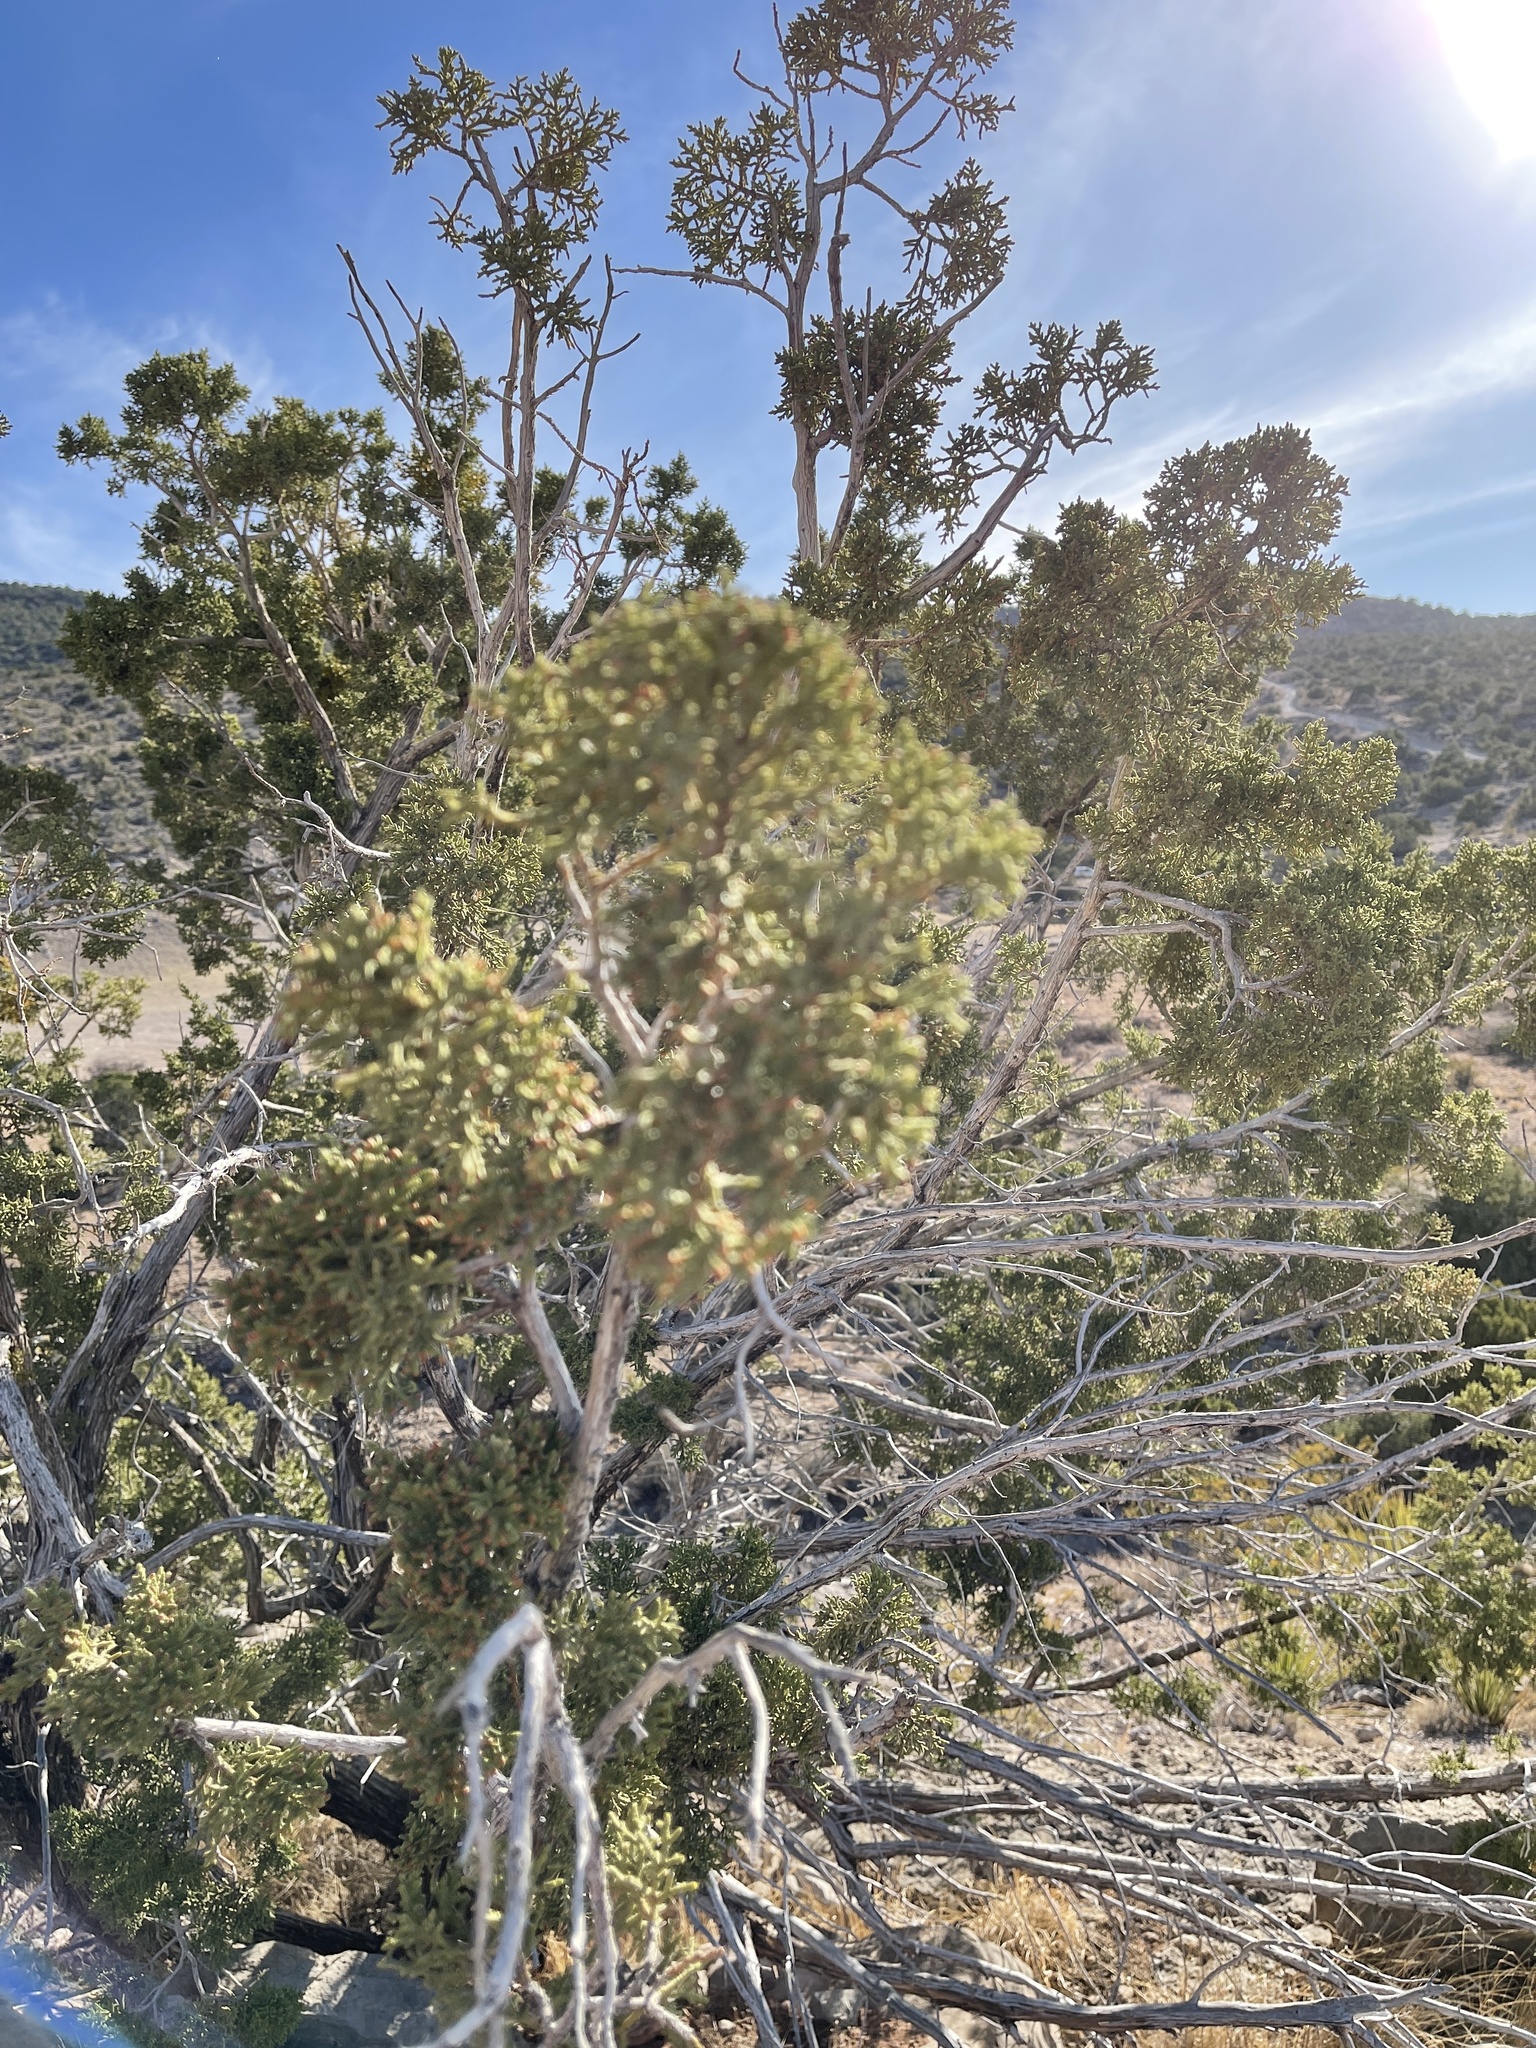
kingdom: Plantae
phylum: Tracheophyta
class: Pinopsida
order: Pinales
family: Cupressaceae
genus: Juniperus
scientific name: Juniperus monosperma
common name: One-seed juniper
